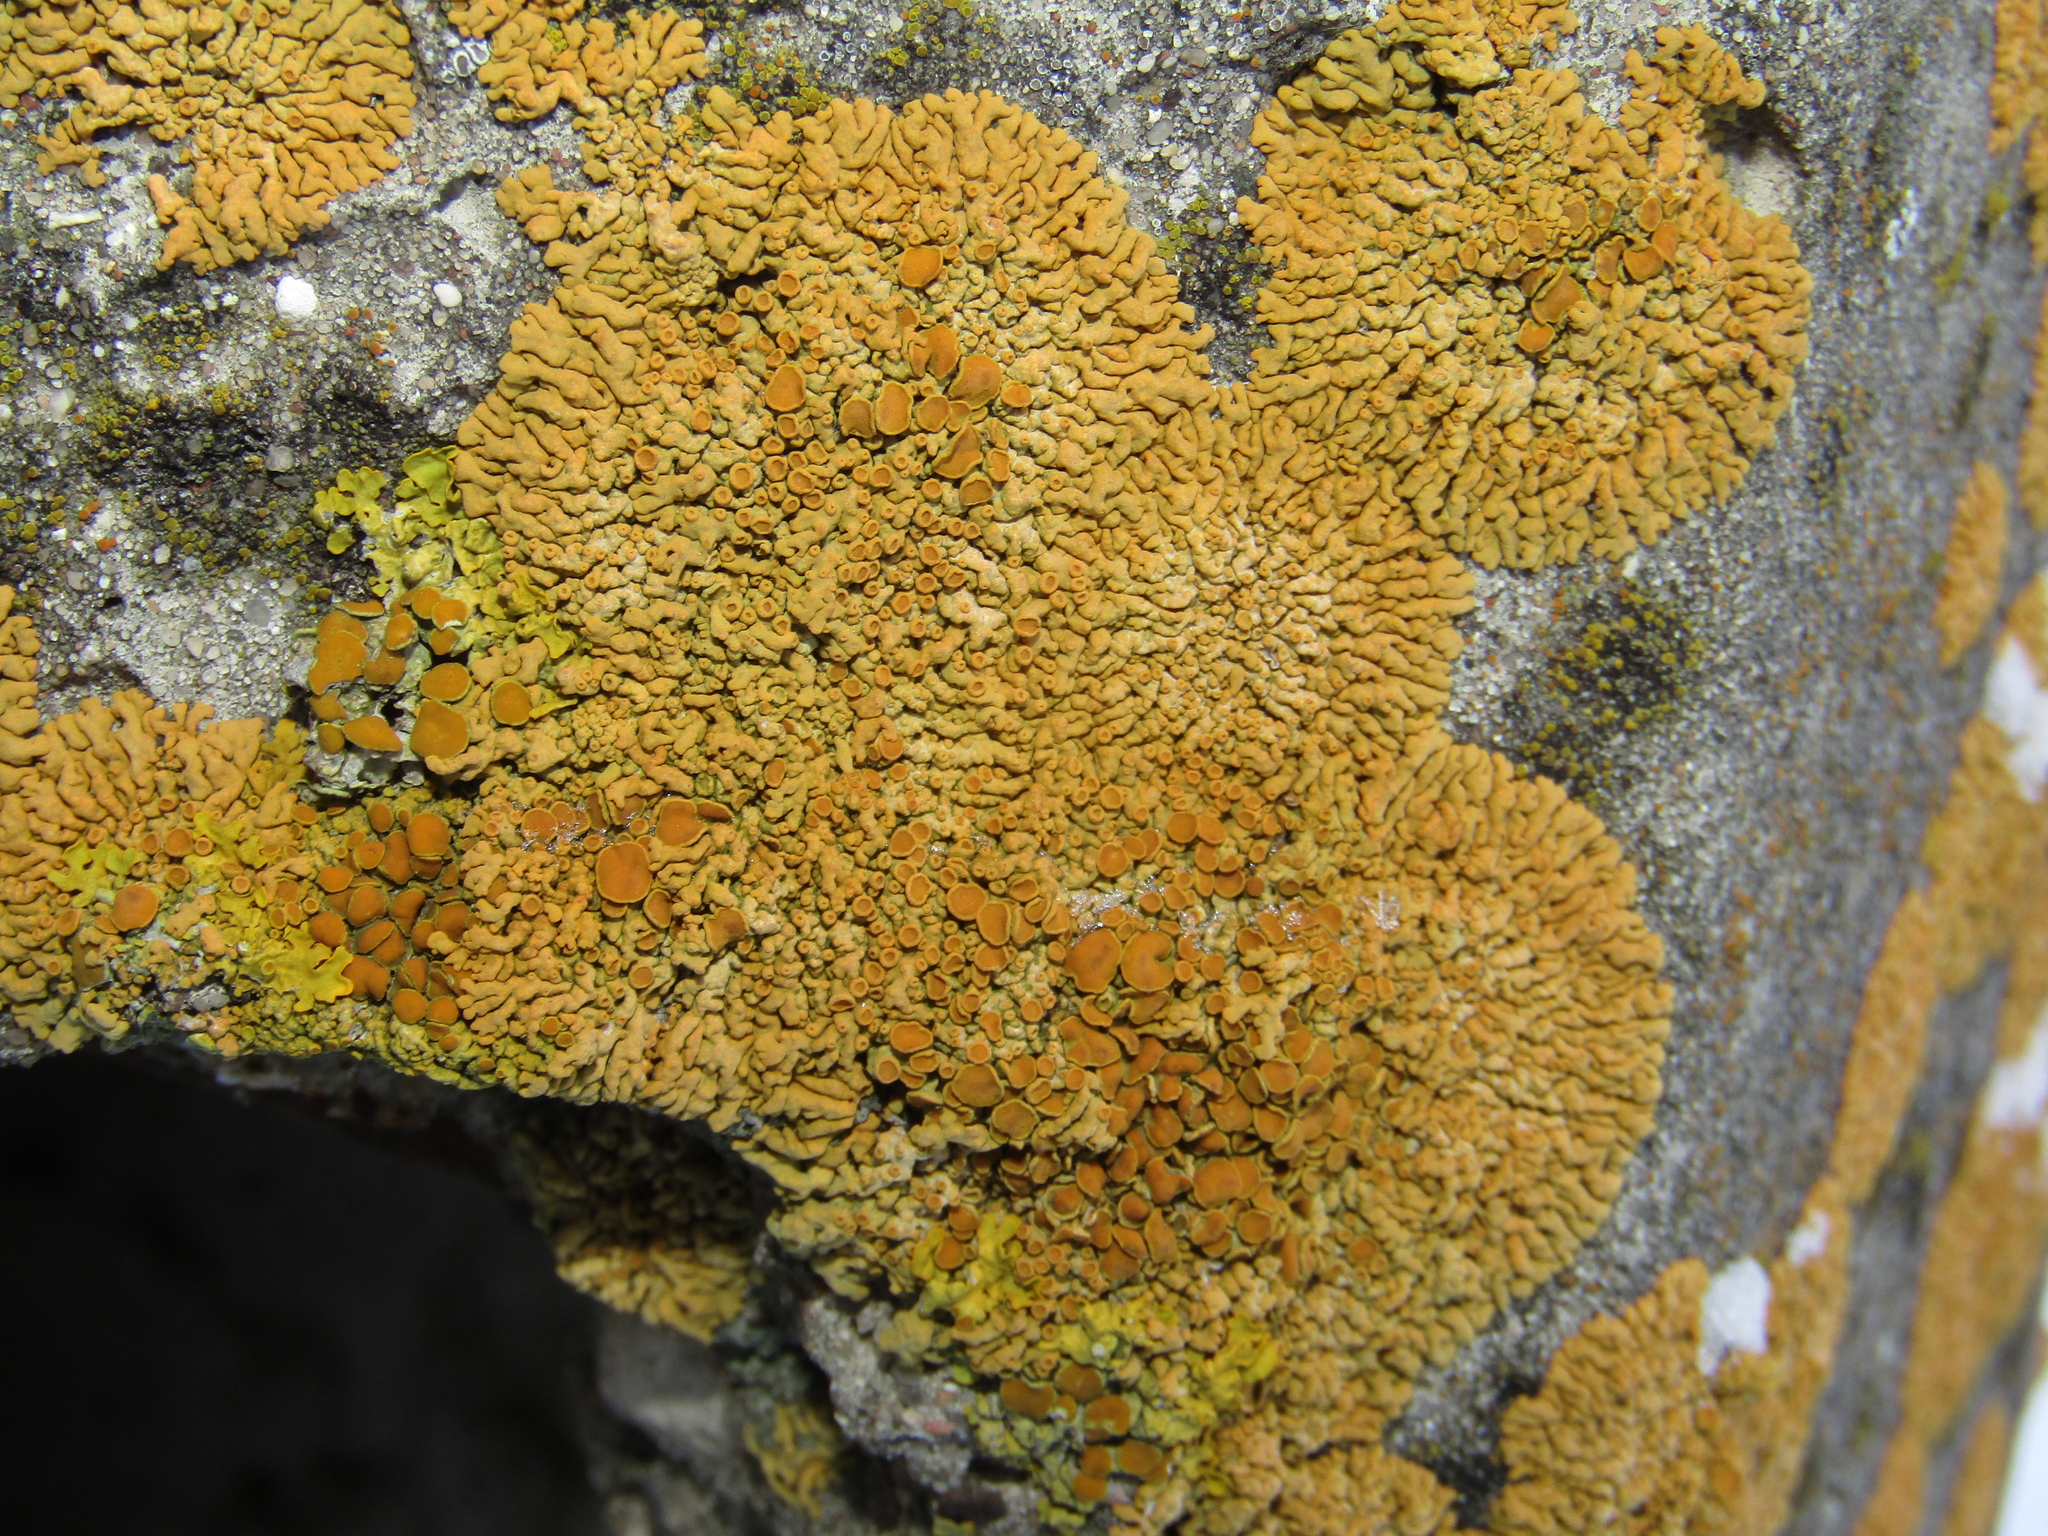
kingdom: Fungi
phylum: Ascomycota
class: Lecanoromycetes
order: Teloschistales
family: Teloschistaceae
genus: Xanthoria
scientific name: Xanthoria elegans
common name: Elegant sunburst lichen
